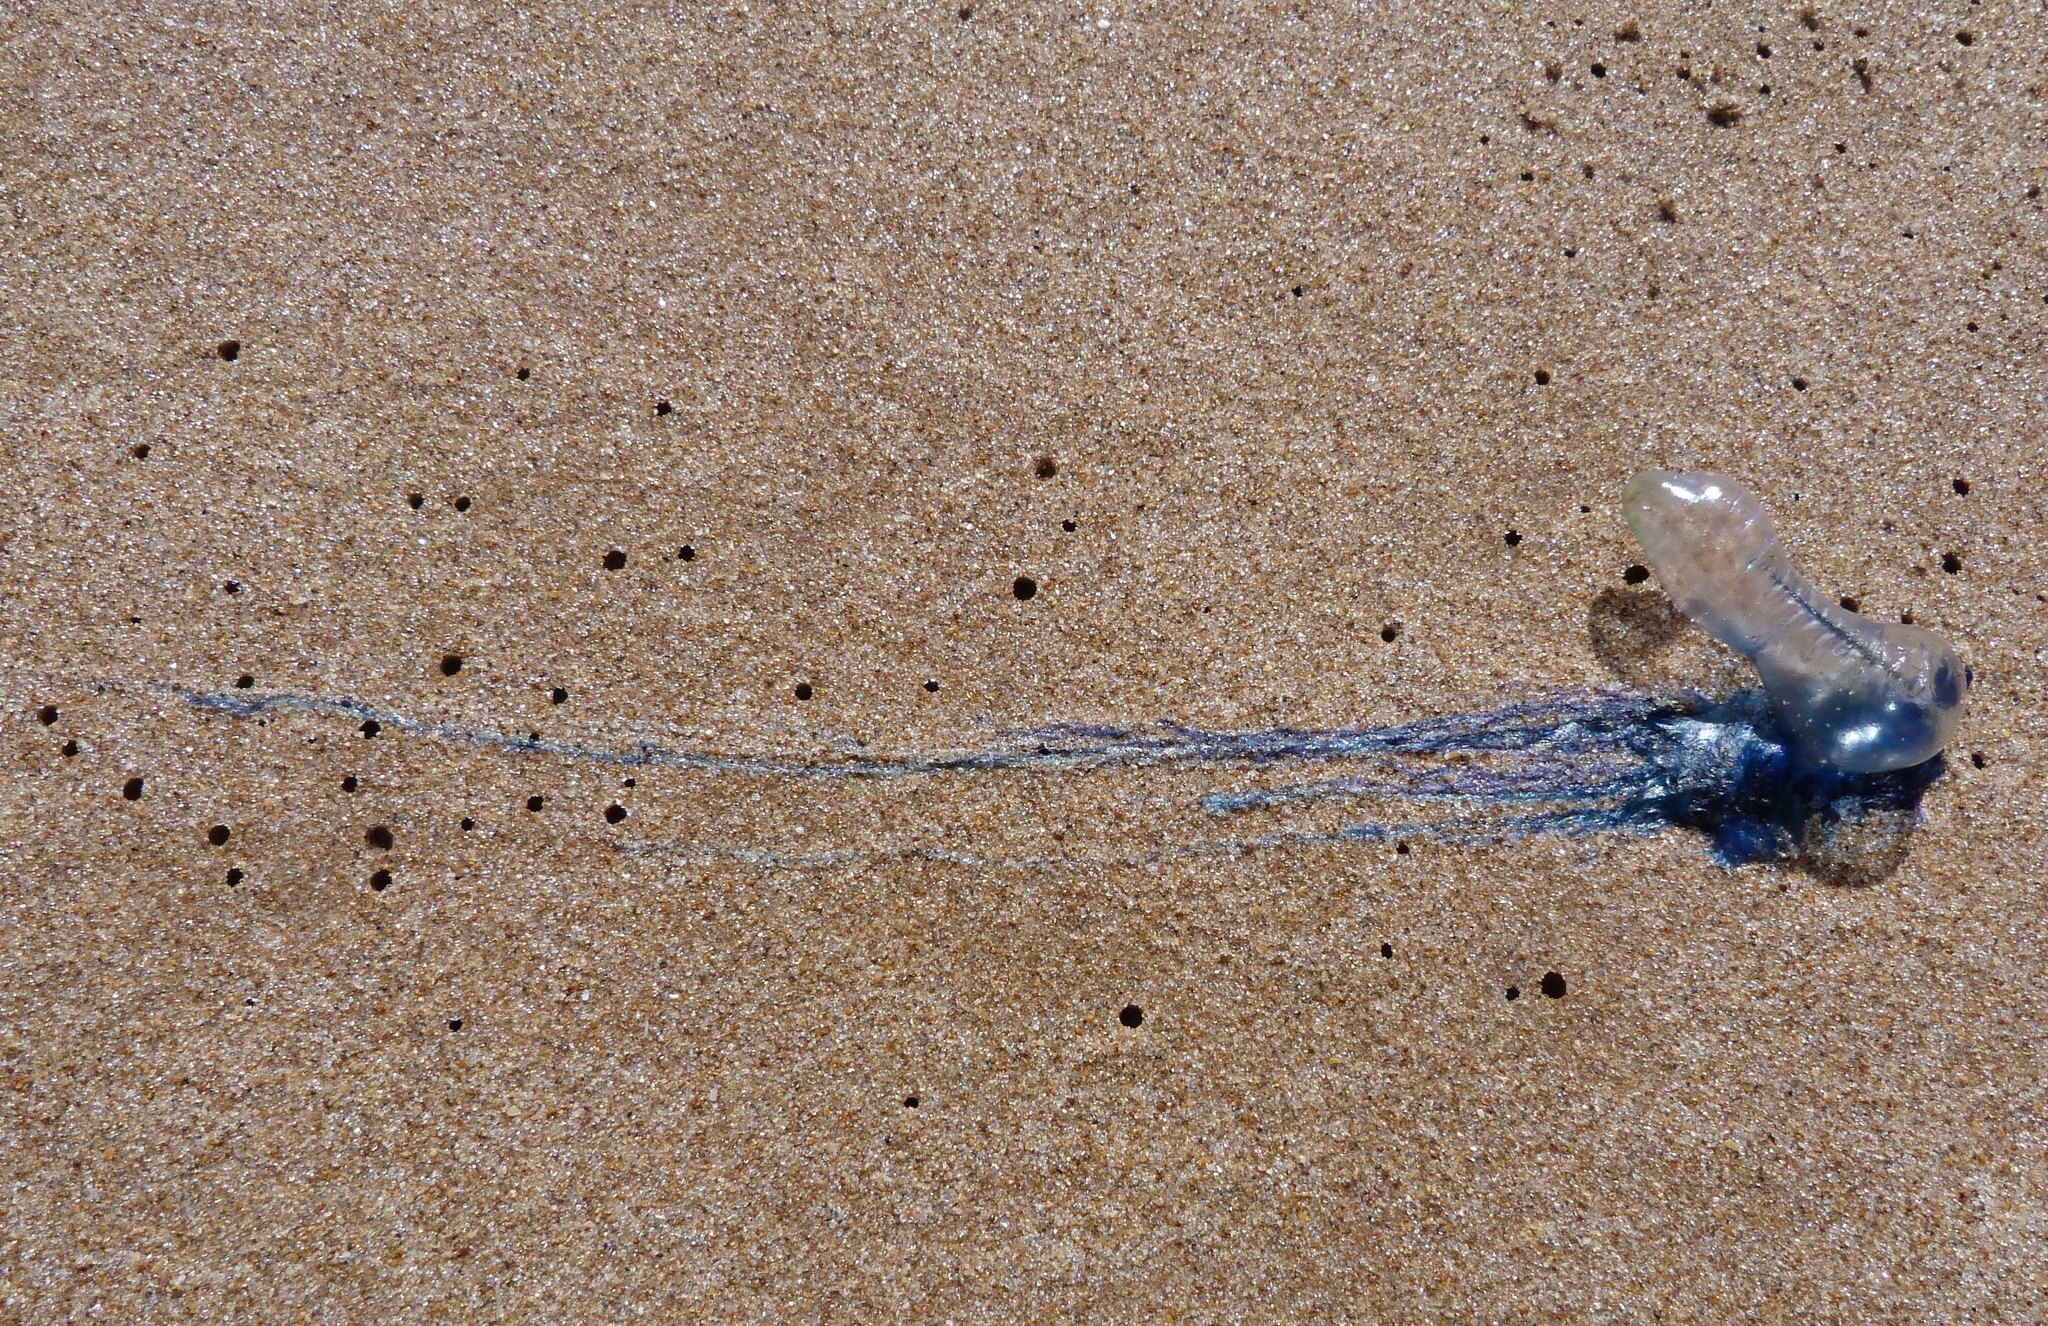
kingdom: Animalia
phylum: Cnidaria
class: Hydrozoa
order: Siphonophorae
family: Physaliidae
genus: Physalia
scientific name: Physalia physalis
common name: Portuguese man-of-war
